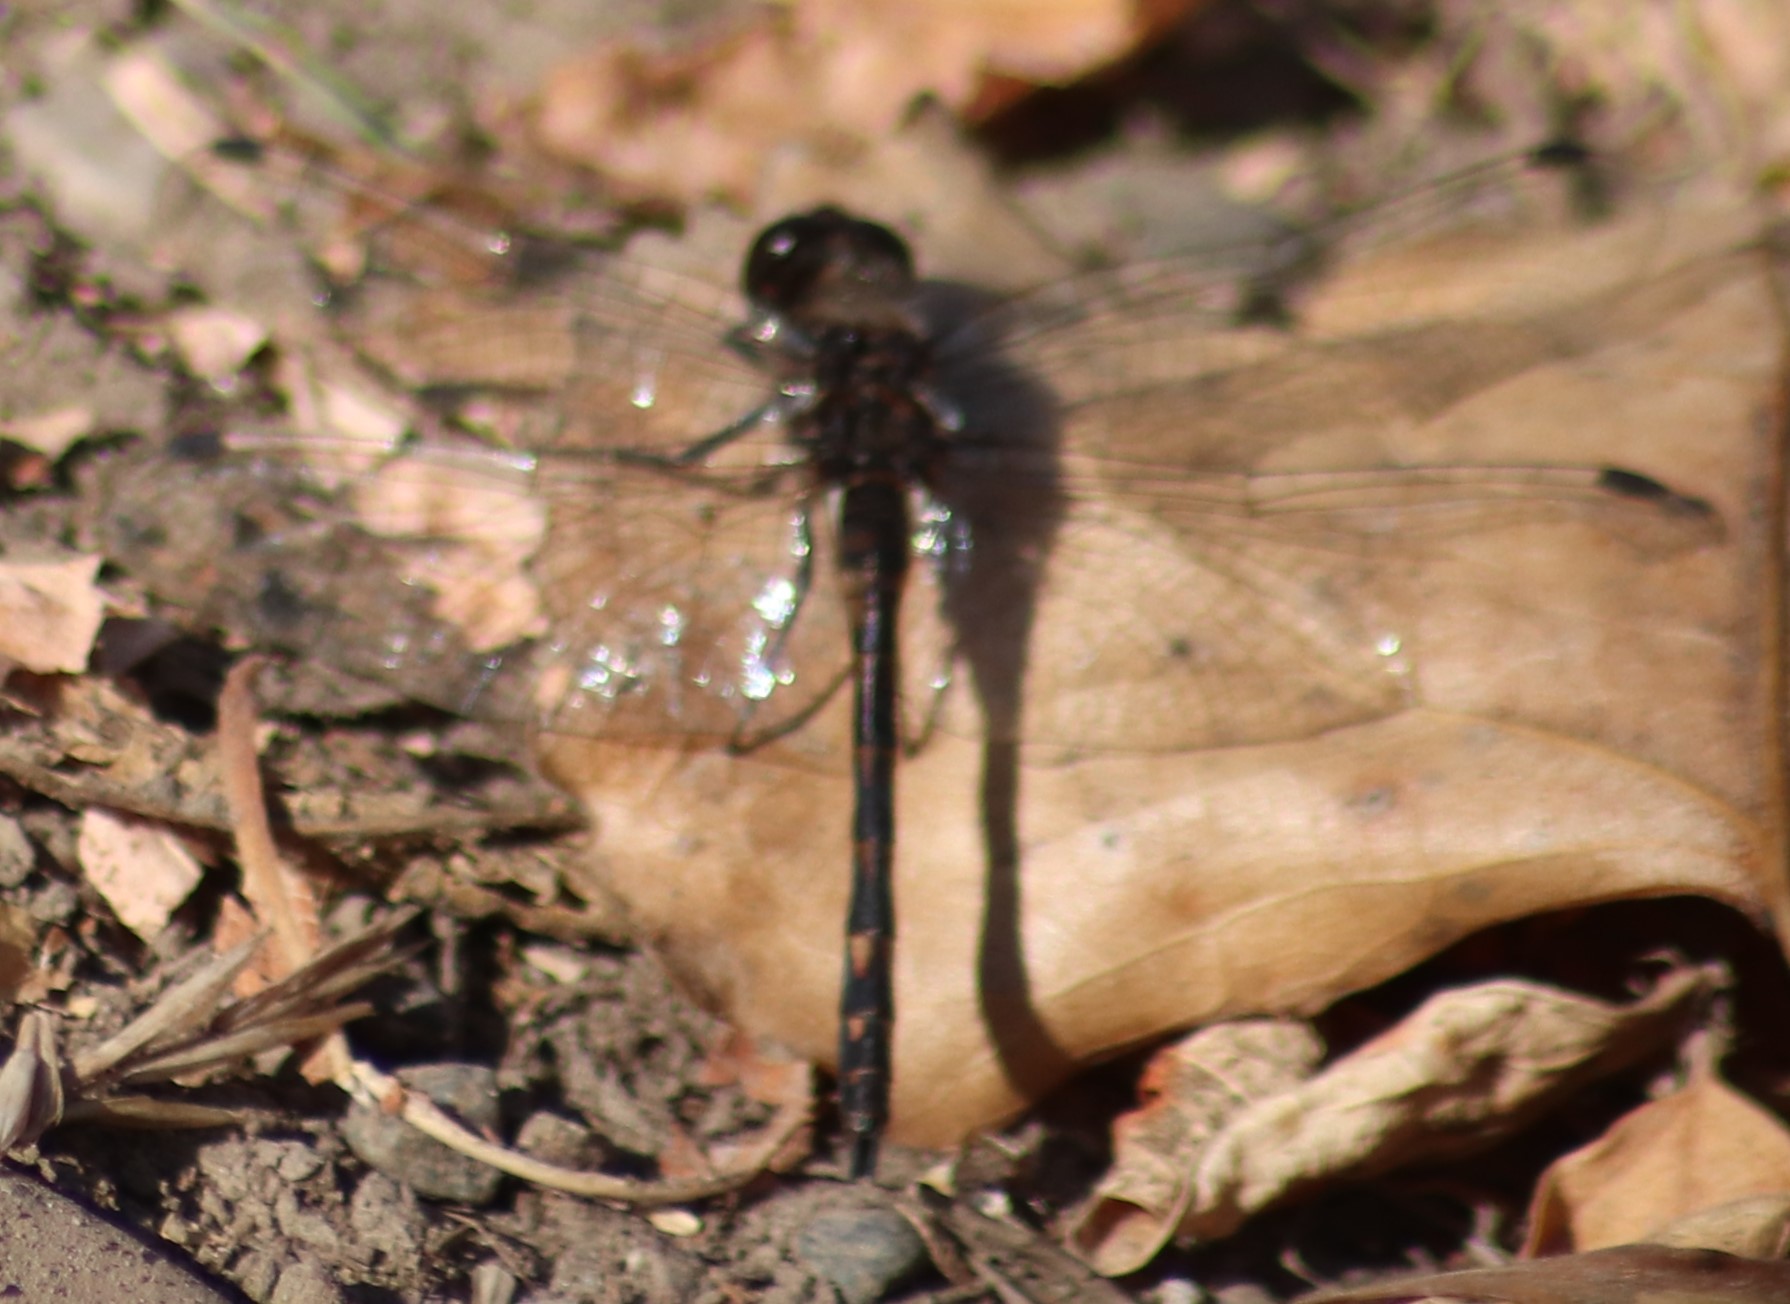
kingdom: Animalia
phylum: Arthropoda
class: Insecta
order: Odonata
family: Libellulidae
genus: Sympetrum
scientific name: Sympetrum danae
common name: Black darter
